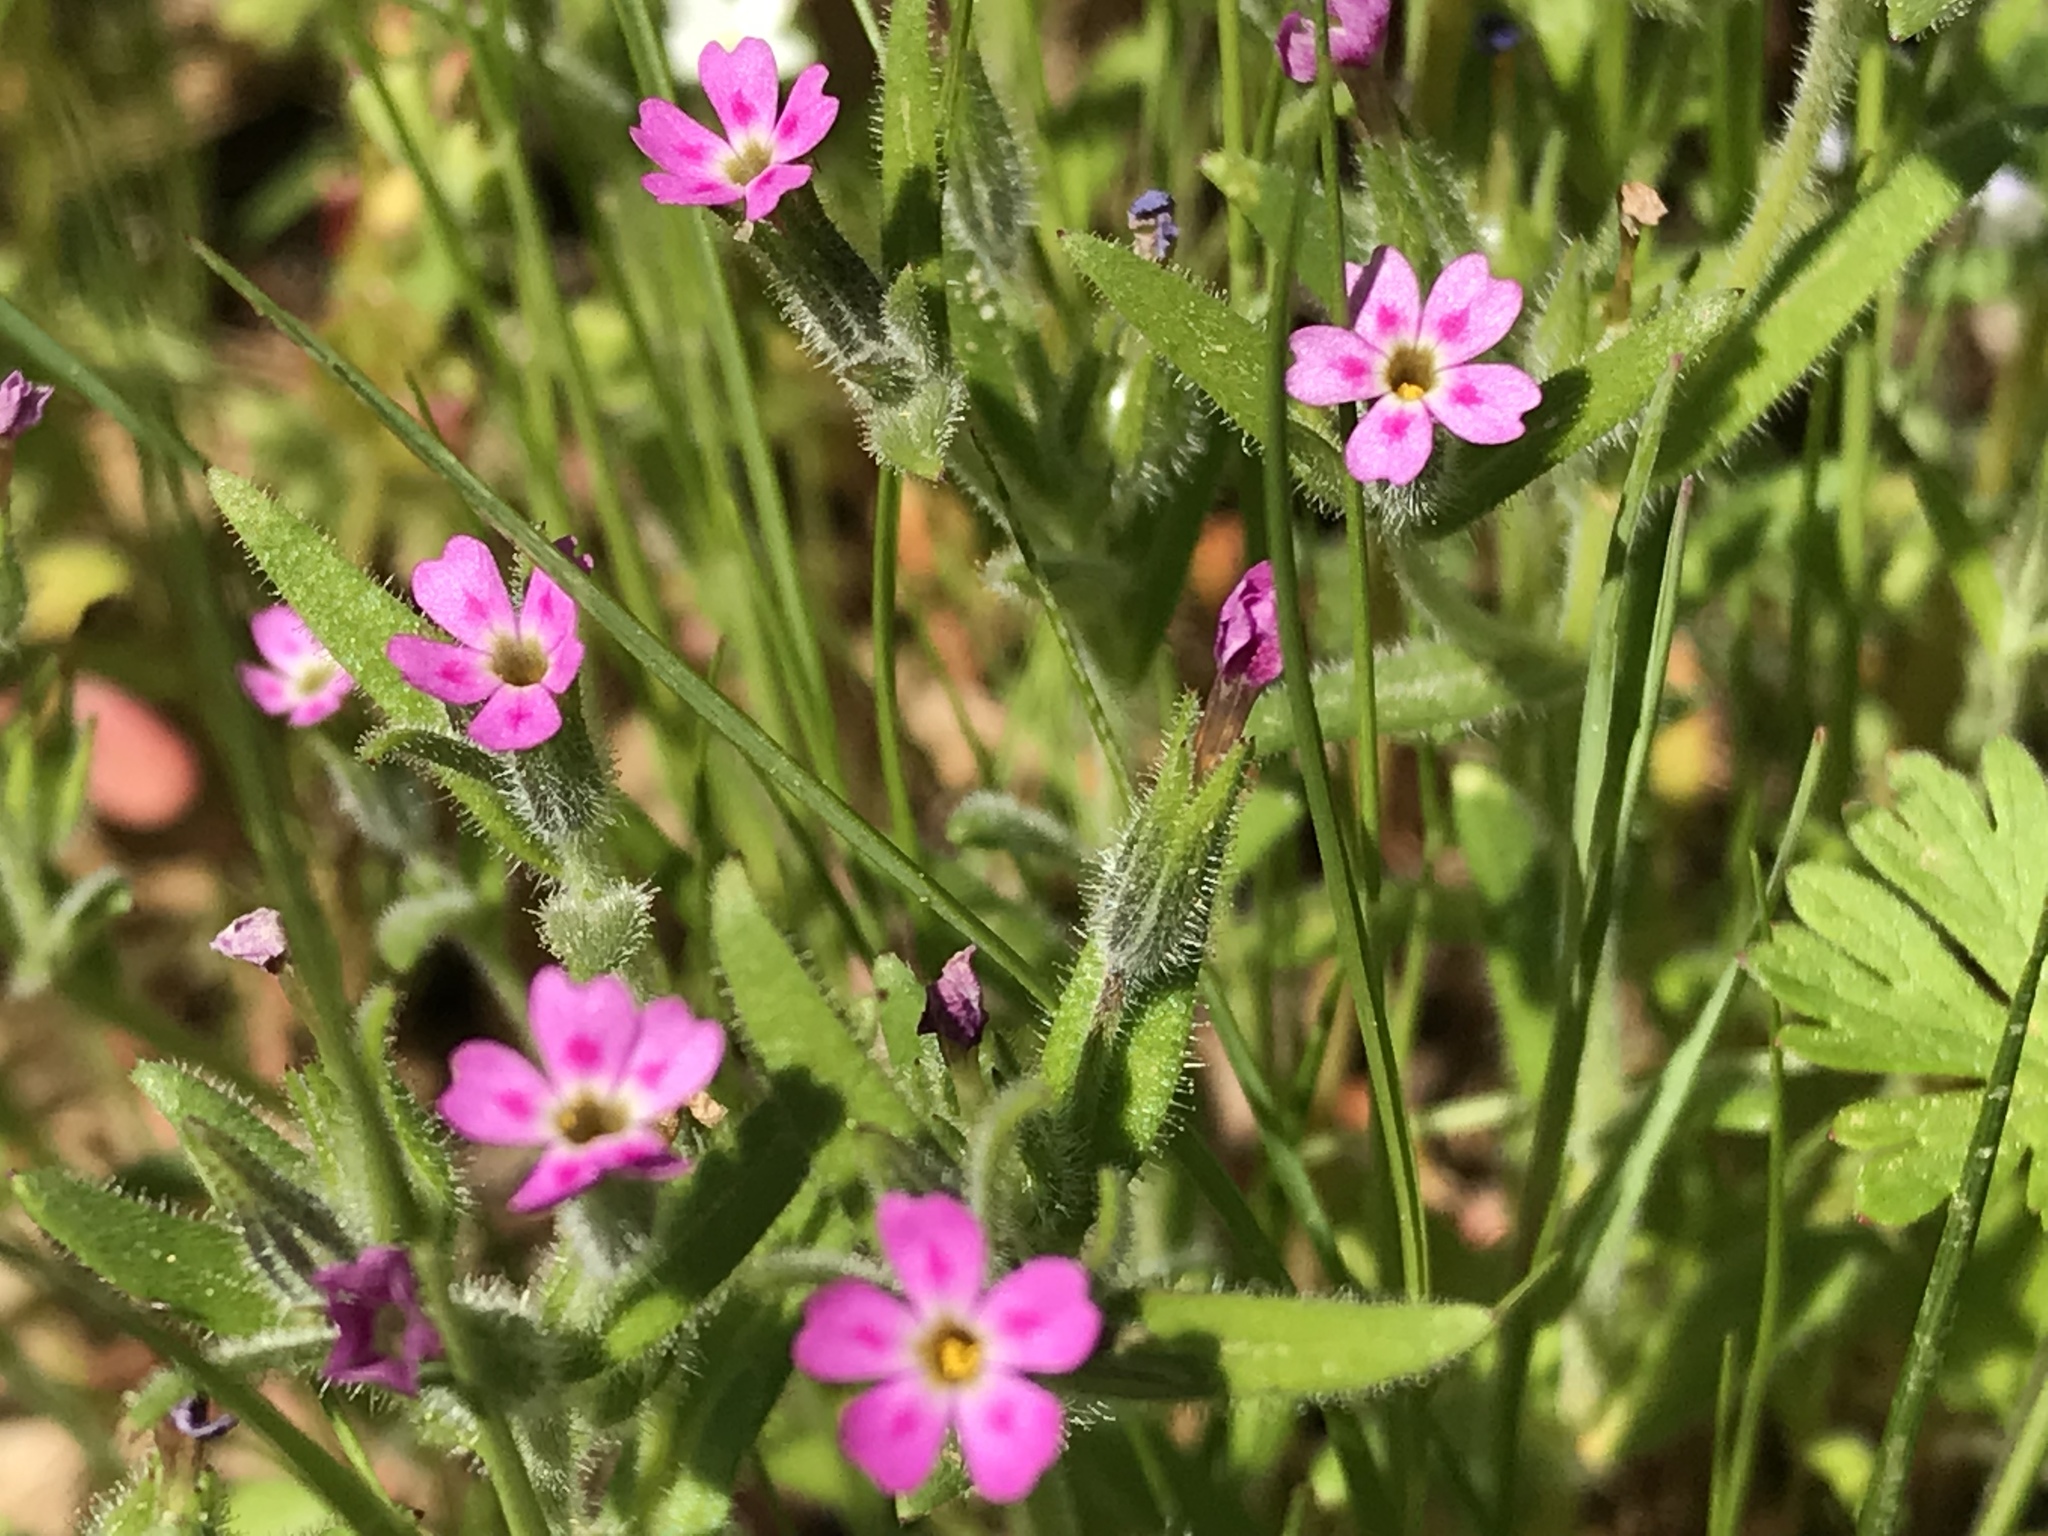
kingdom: Plantae
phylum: Tracheophyta
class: Magnoliopsida
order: Ericales
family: Polemoniaceae
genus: Phlox
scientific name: Phlox gracilis
